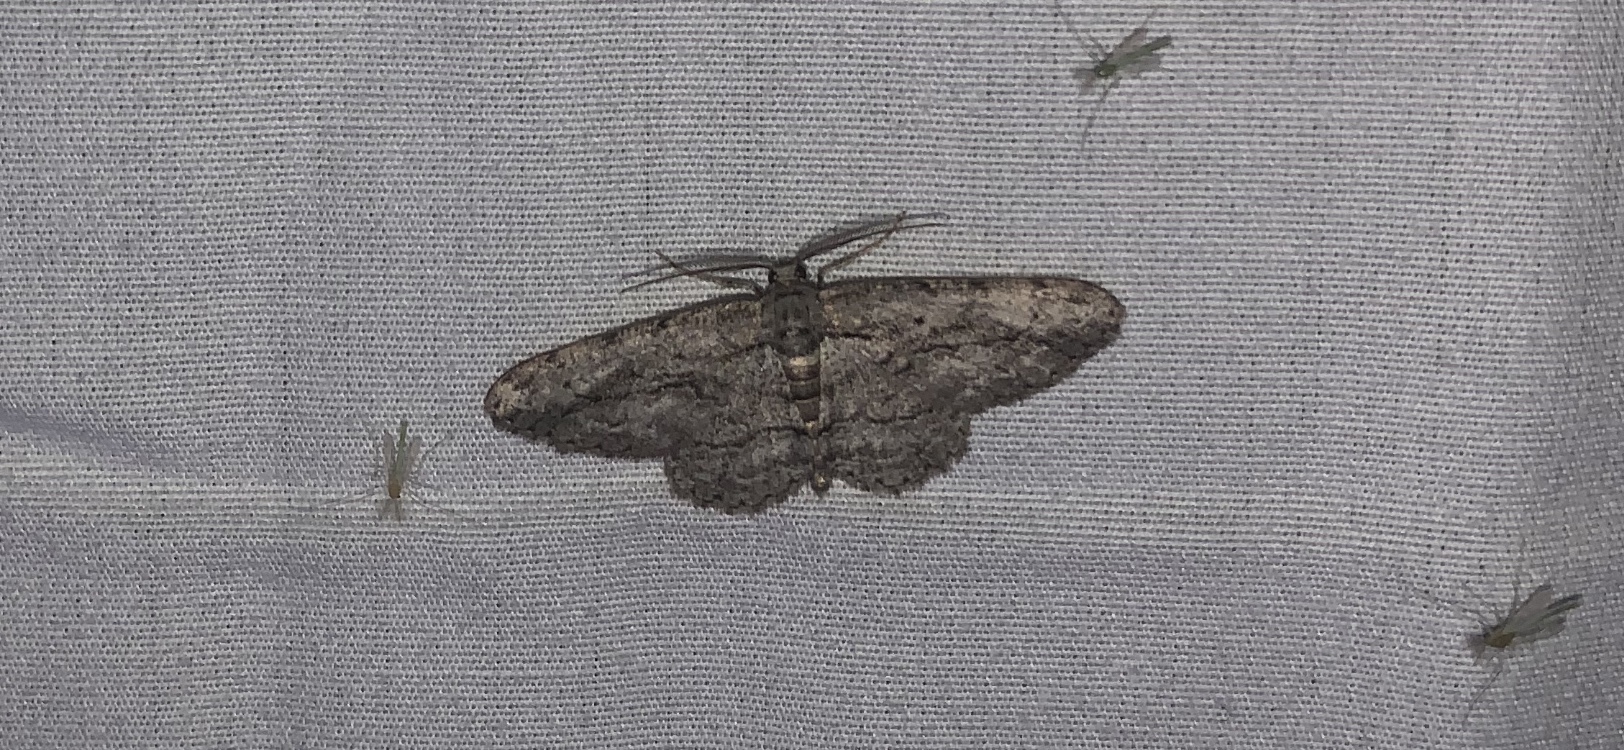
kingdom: Animalia
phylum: Arthropoda
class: Insecta
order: Lepidoptera
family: Geometridae
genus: Anavitrinella
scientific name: Anavitrinella pampinaria
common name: Common gray
